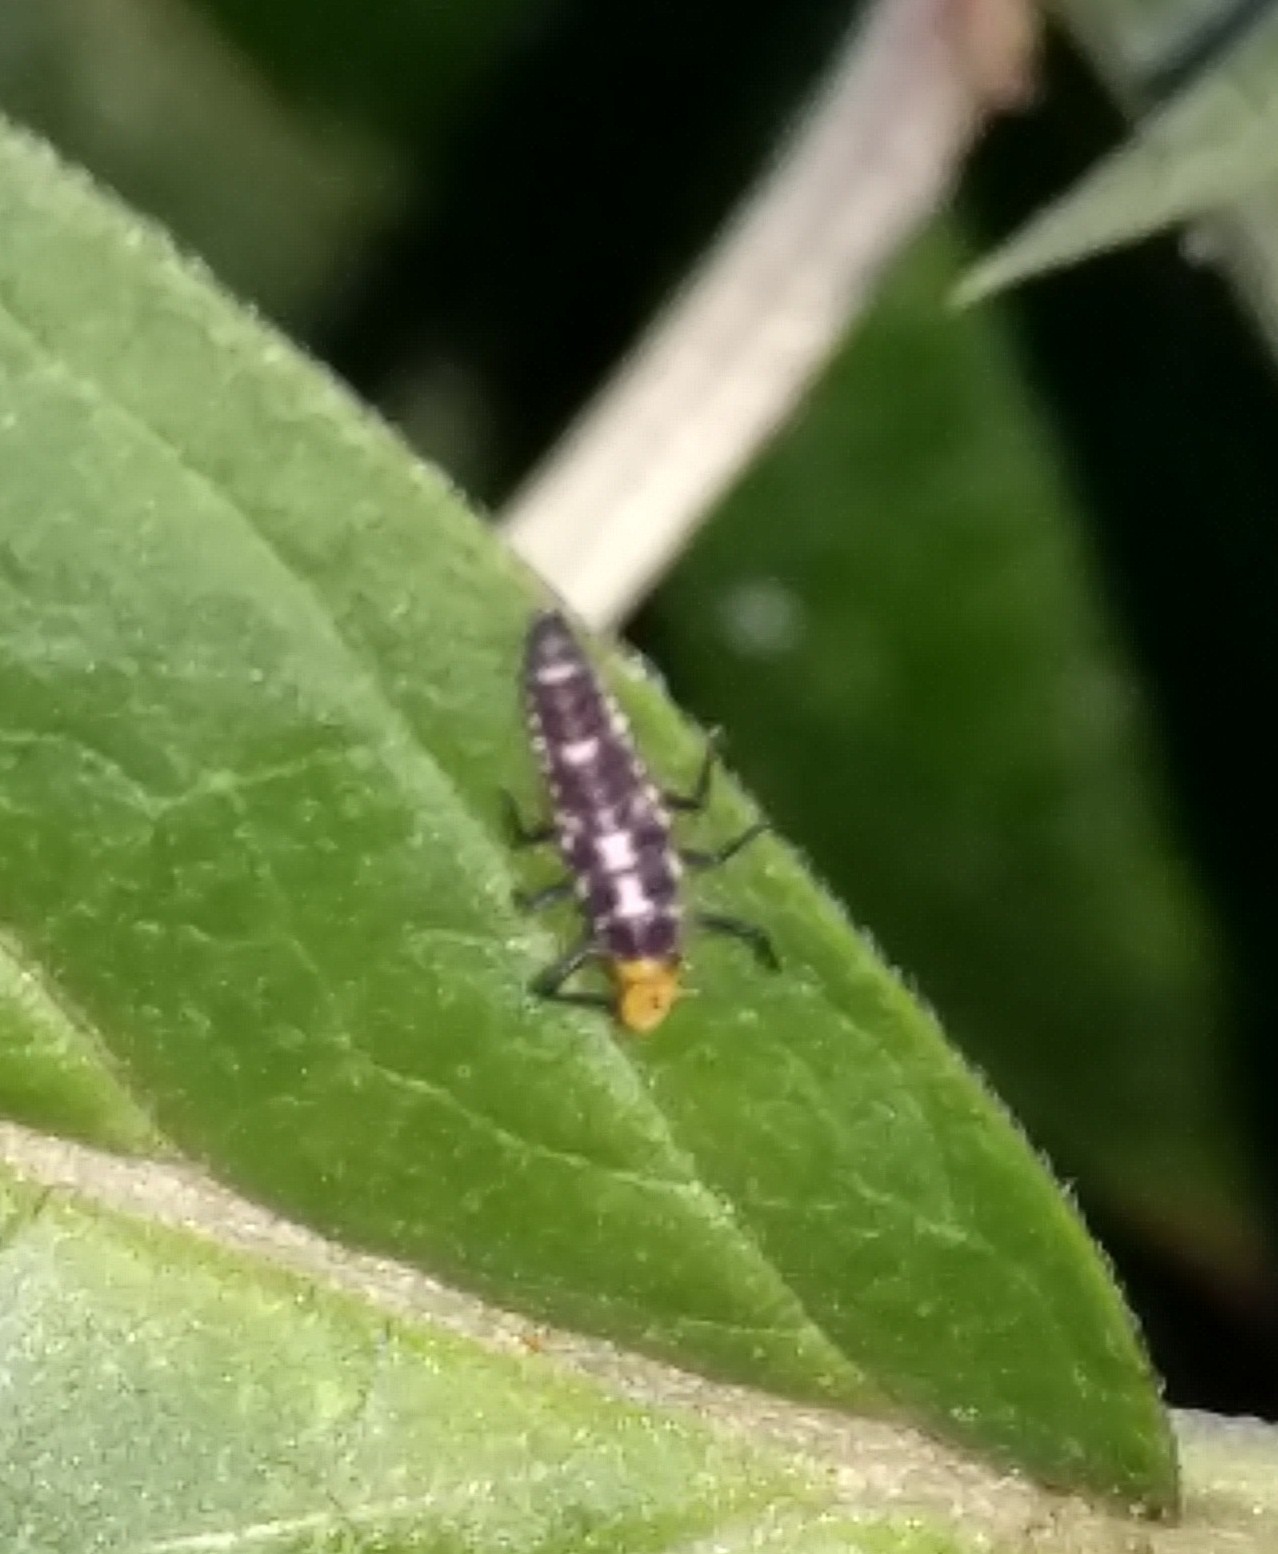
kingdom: Animalia
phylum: Arthropoda
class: Insecta
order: Coleoptera
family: Coccinellidae
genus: Propylaea
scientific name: Propylaea quatuordecimpunctata
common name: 14-spotted ladybird beetle
